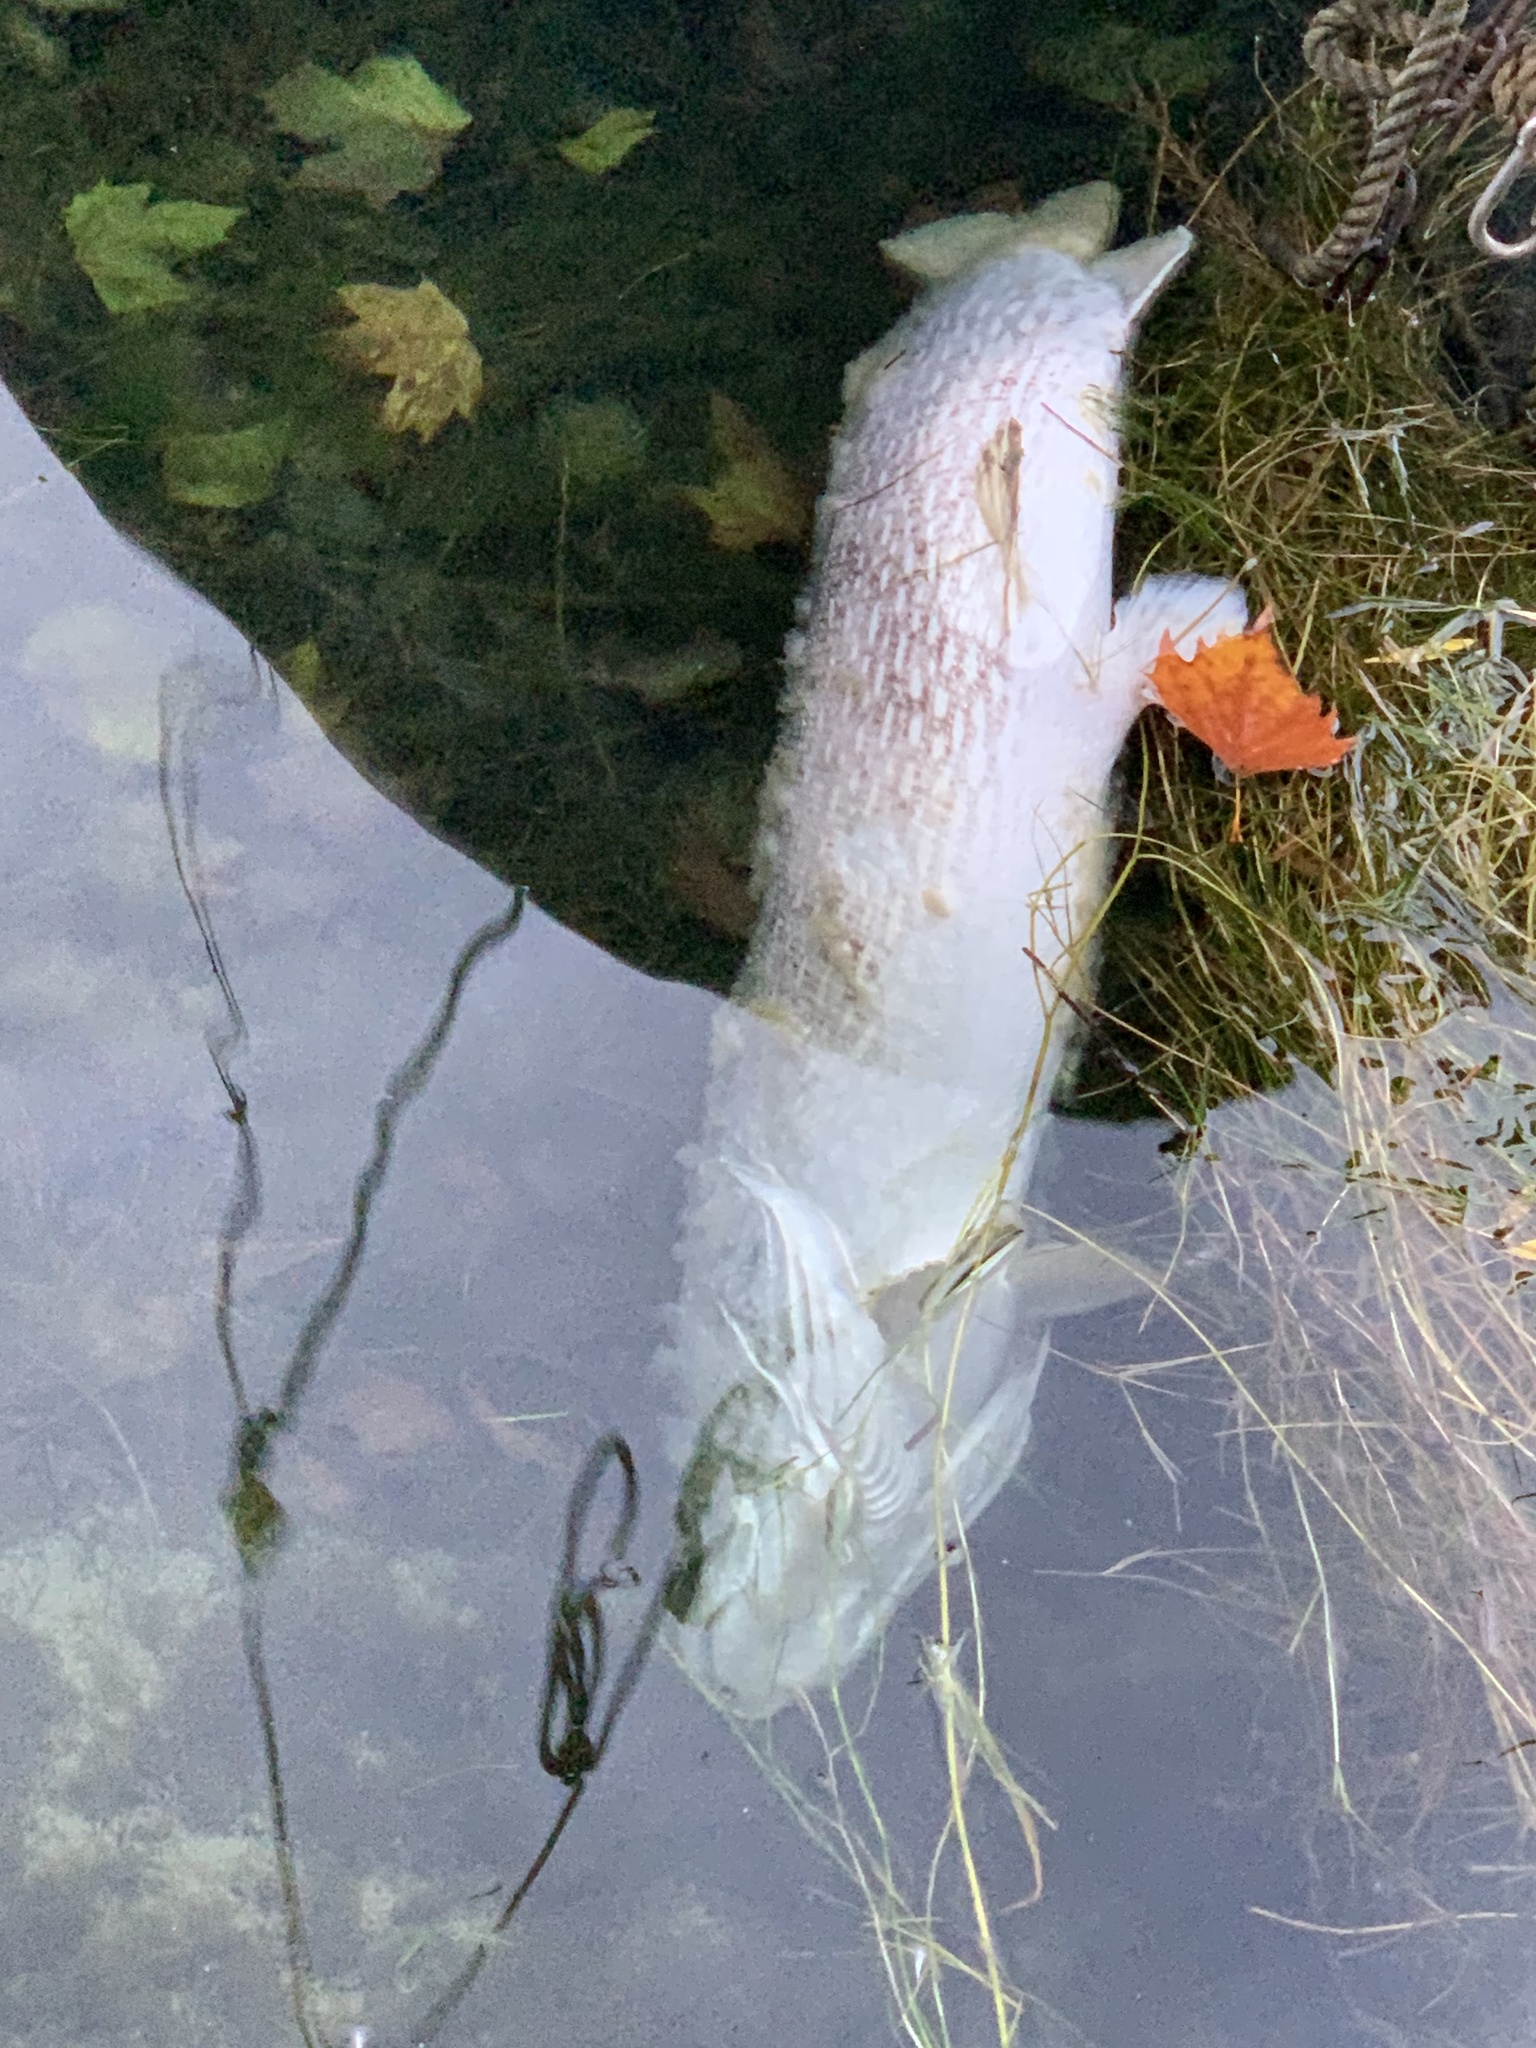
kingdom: Animalia
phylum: Chordata
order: Esociformes
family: Esocidae
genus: Esox
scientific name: Esox lucius
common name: Northern pike
